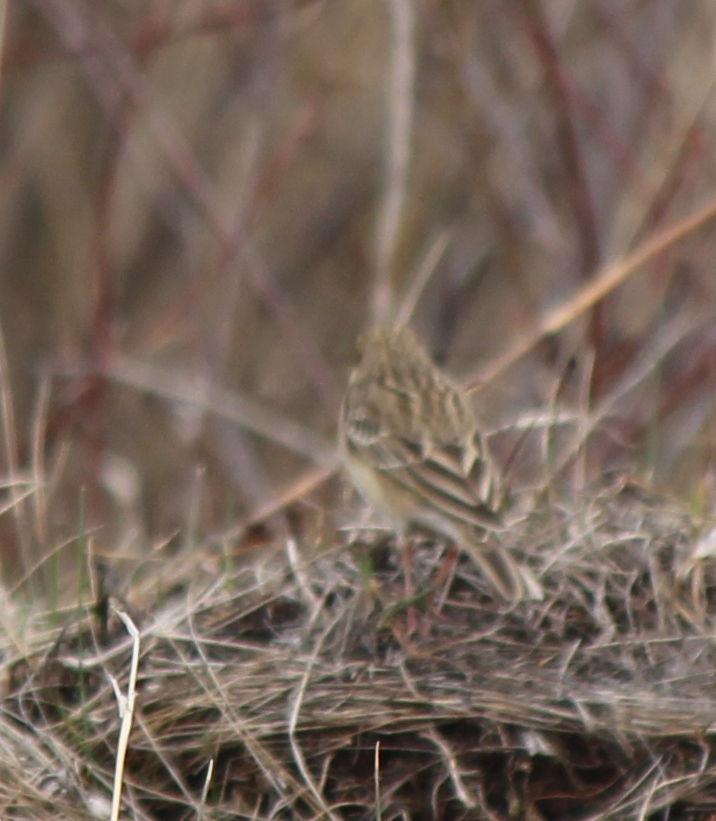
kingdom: Animalia
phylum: Chordata
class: Aves
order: Passeriformes
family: Motacillidae
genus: Anthus
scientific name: Anthus trivialis
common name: Tree pipit
